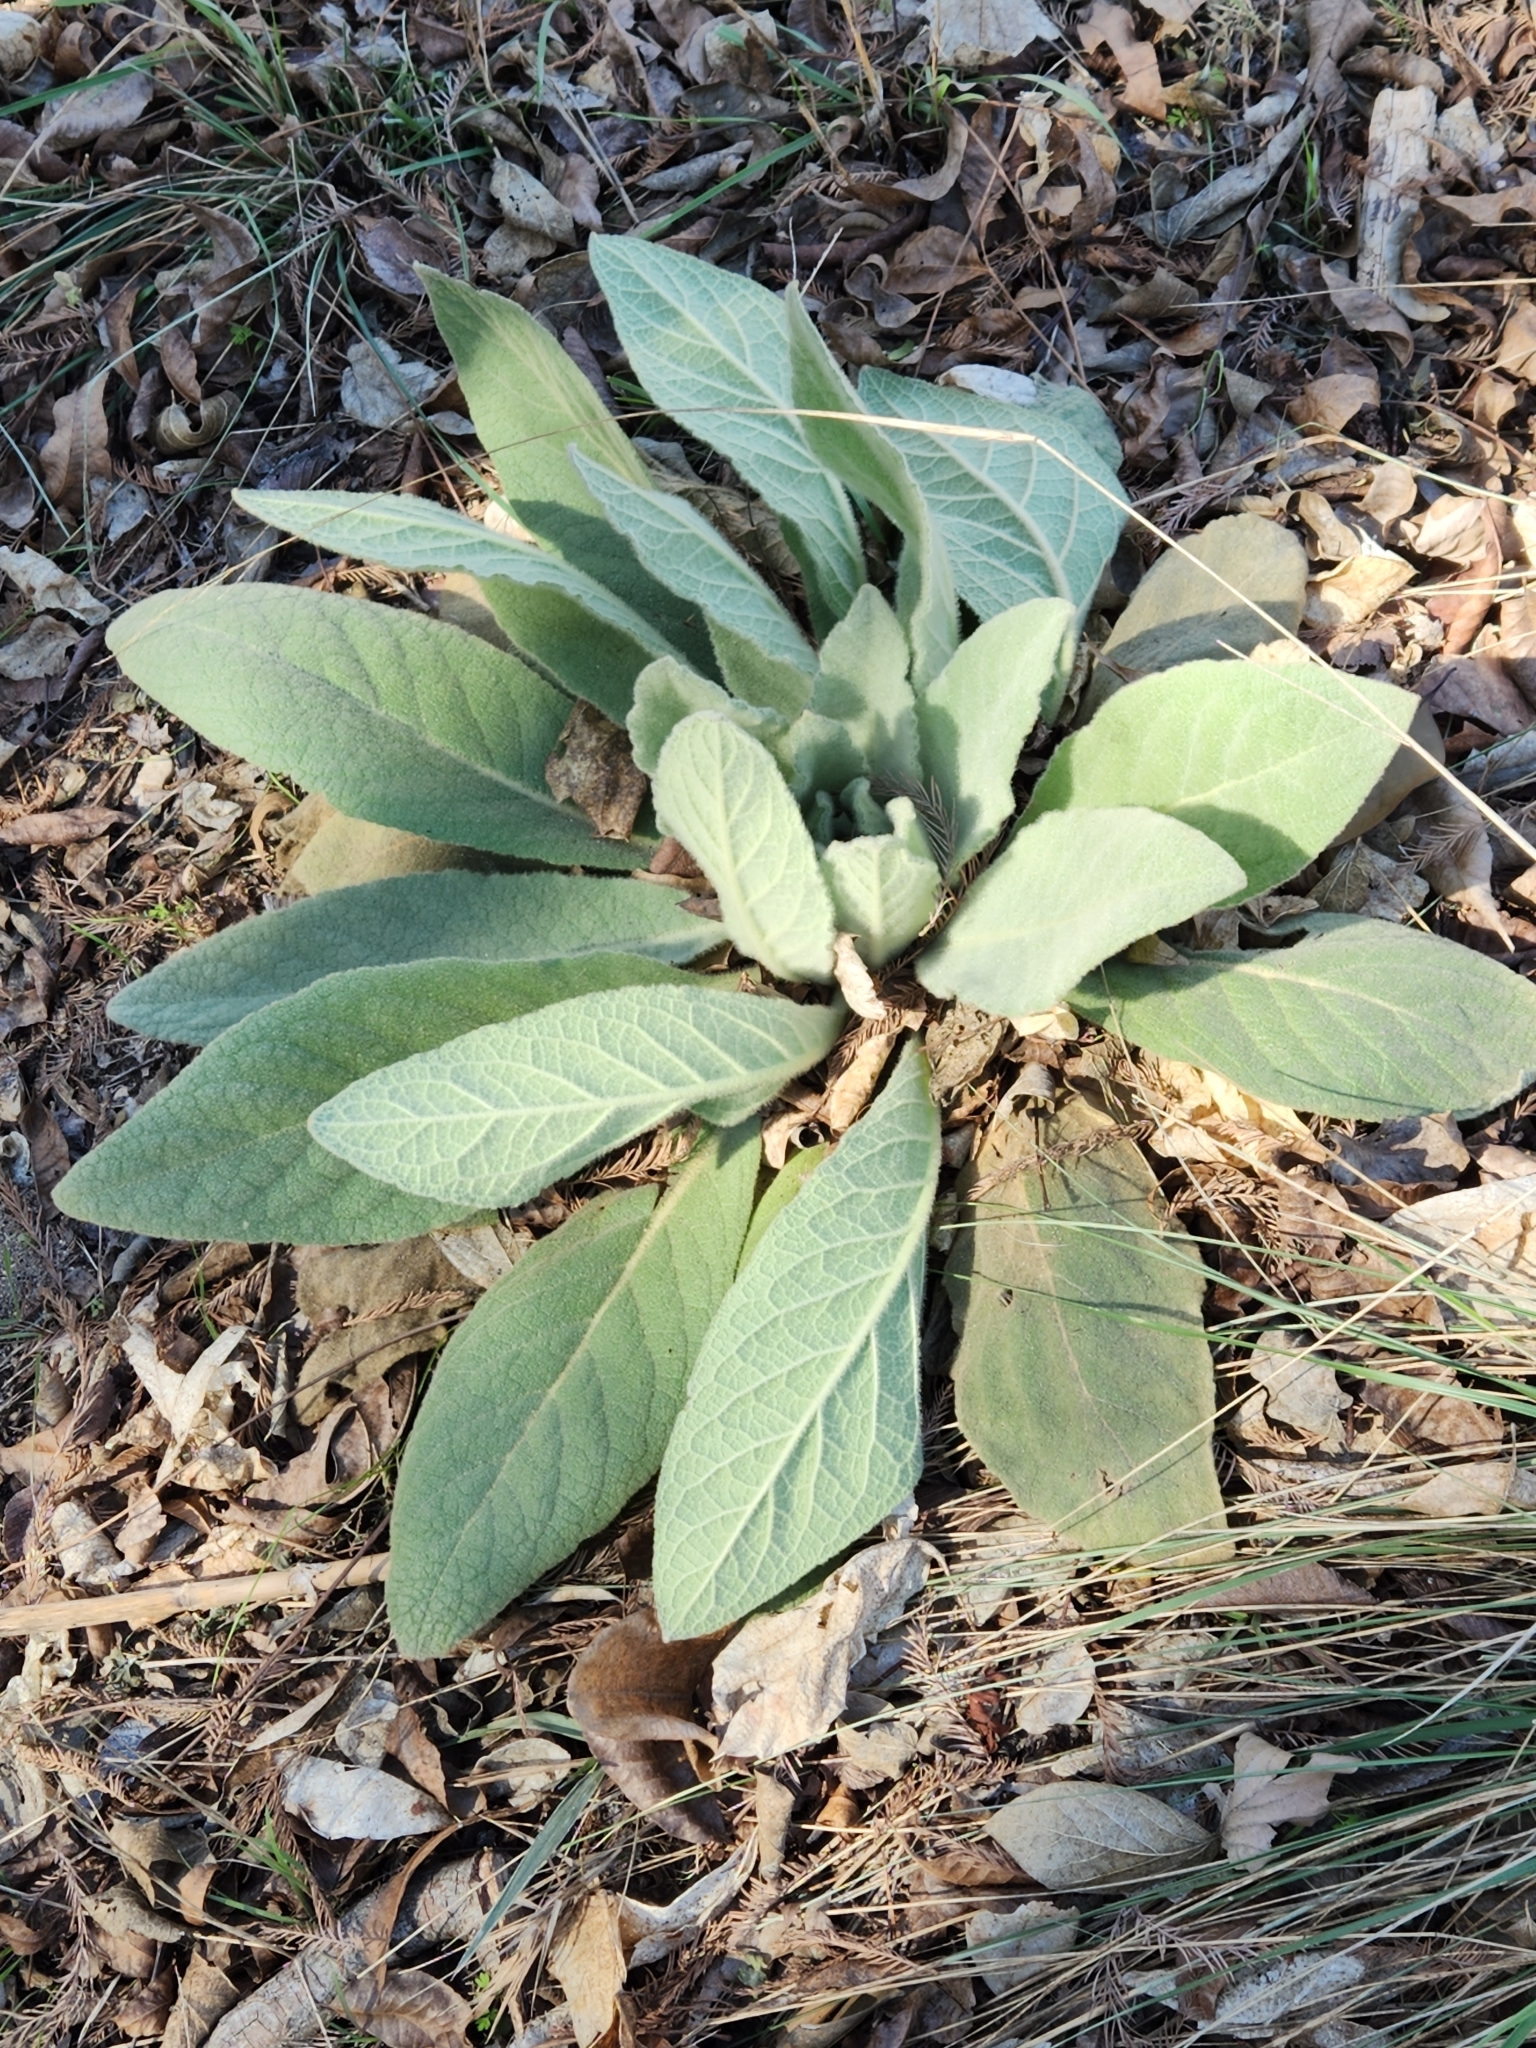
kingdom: Plantae
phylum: Tracheophyta
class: Magnoliopsida
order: Lamiales
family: Scrophulariaceae
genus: Verbascum
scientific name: Verbascum thapsus
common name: Common mullein
